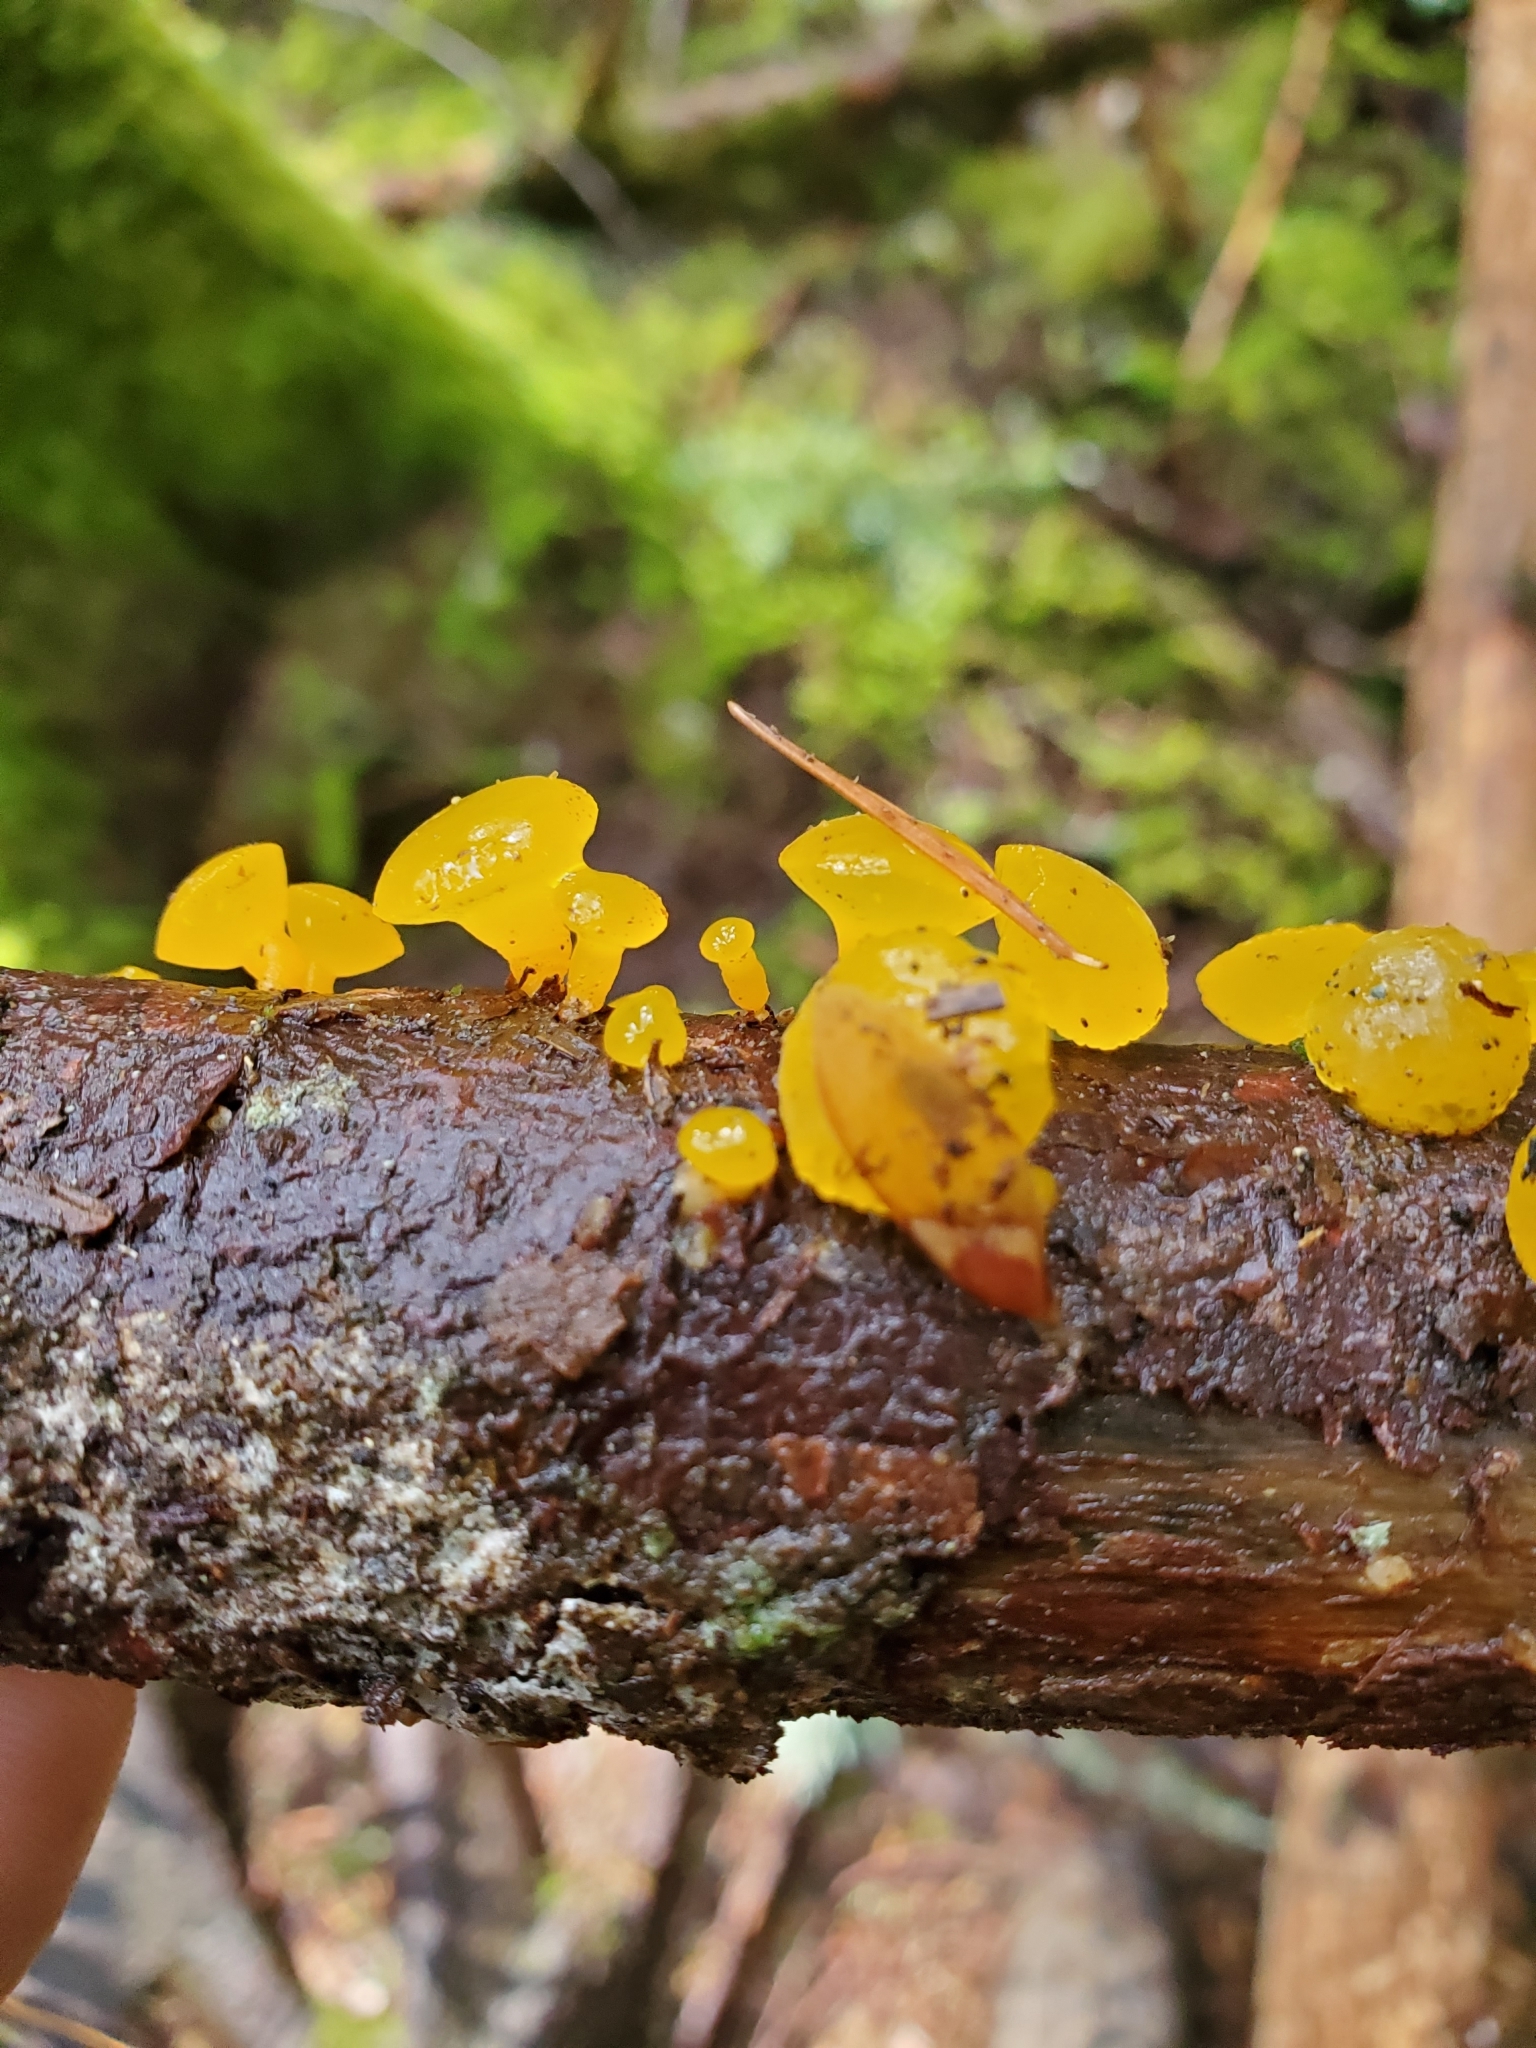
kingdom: Fungi
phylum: Basidiomycota
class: Dacrymycetes
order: Dacrymycetales
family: Dacrymycetaceae
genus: Guepiniopsis
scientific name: Guepiniopsis alpina
